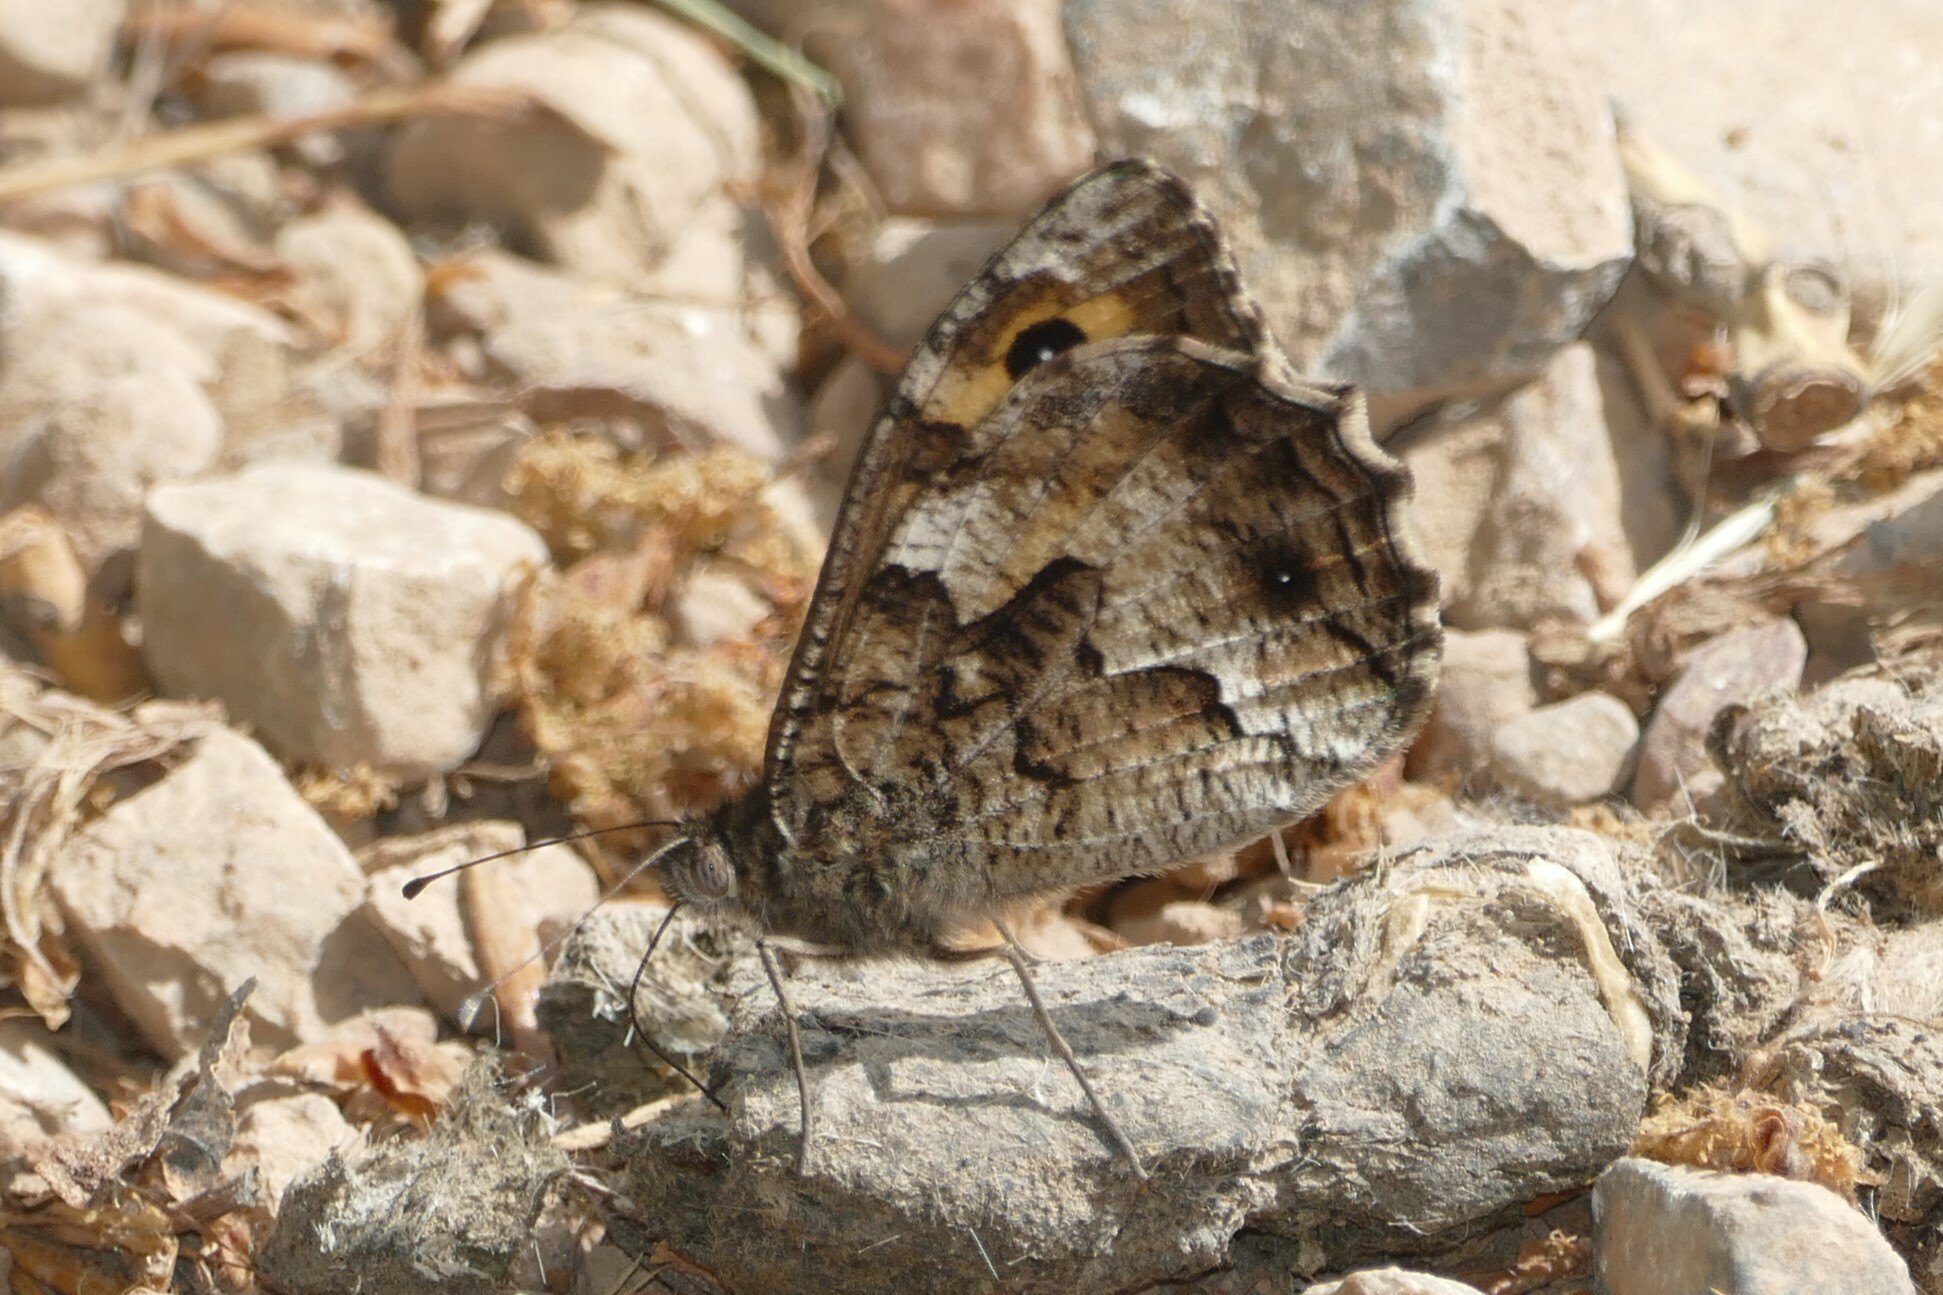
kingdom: Animalia
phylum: Arthropoda
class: Insecta
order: Lepidoptera
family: Nymphalidae
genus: Hipparchia
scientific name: Hipparchia semele
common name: Grayling
